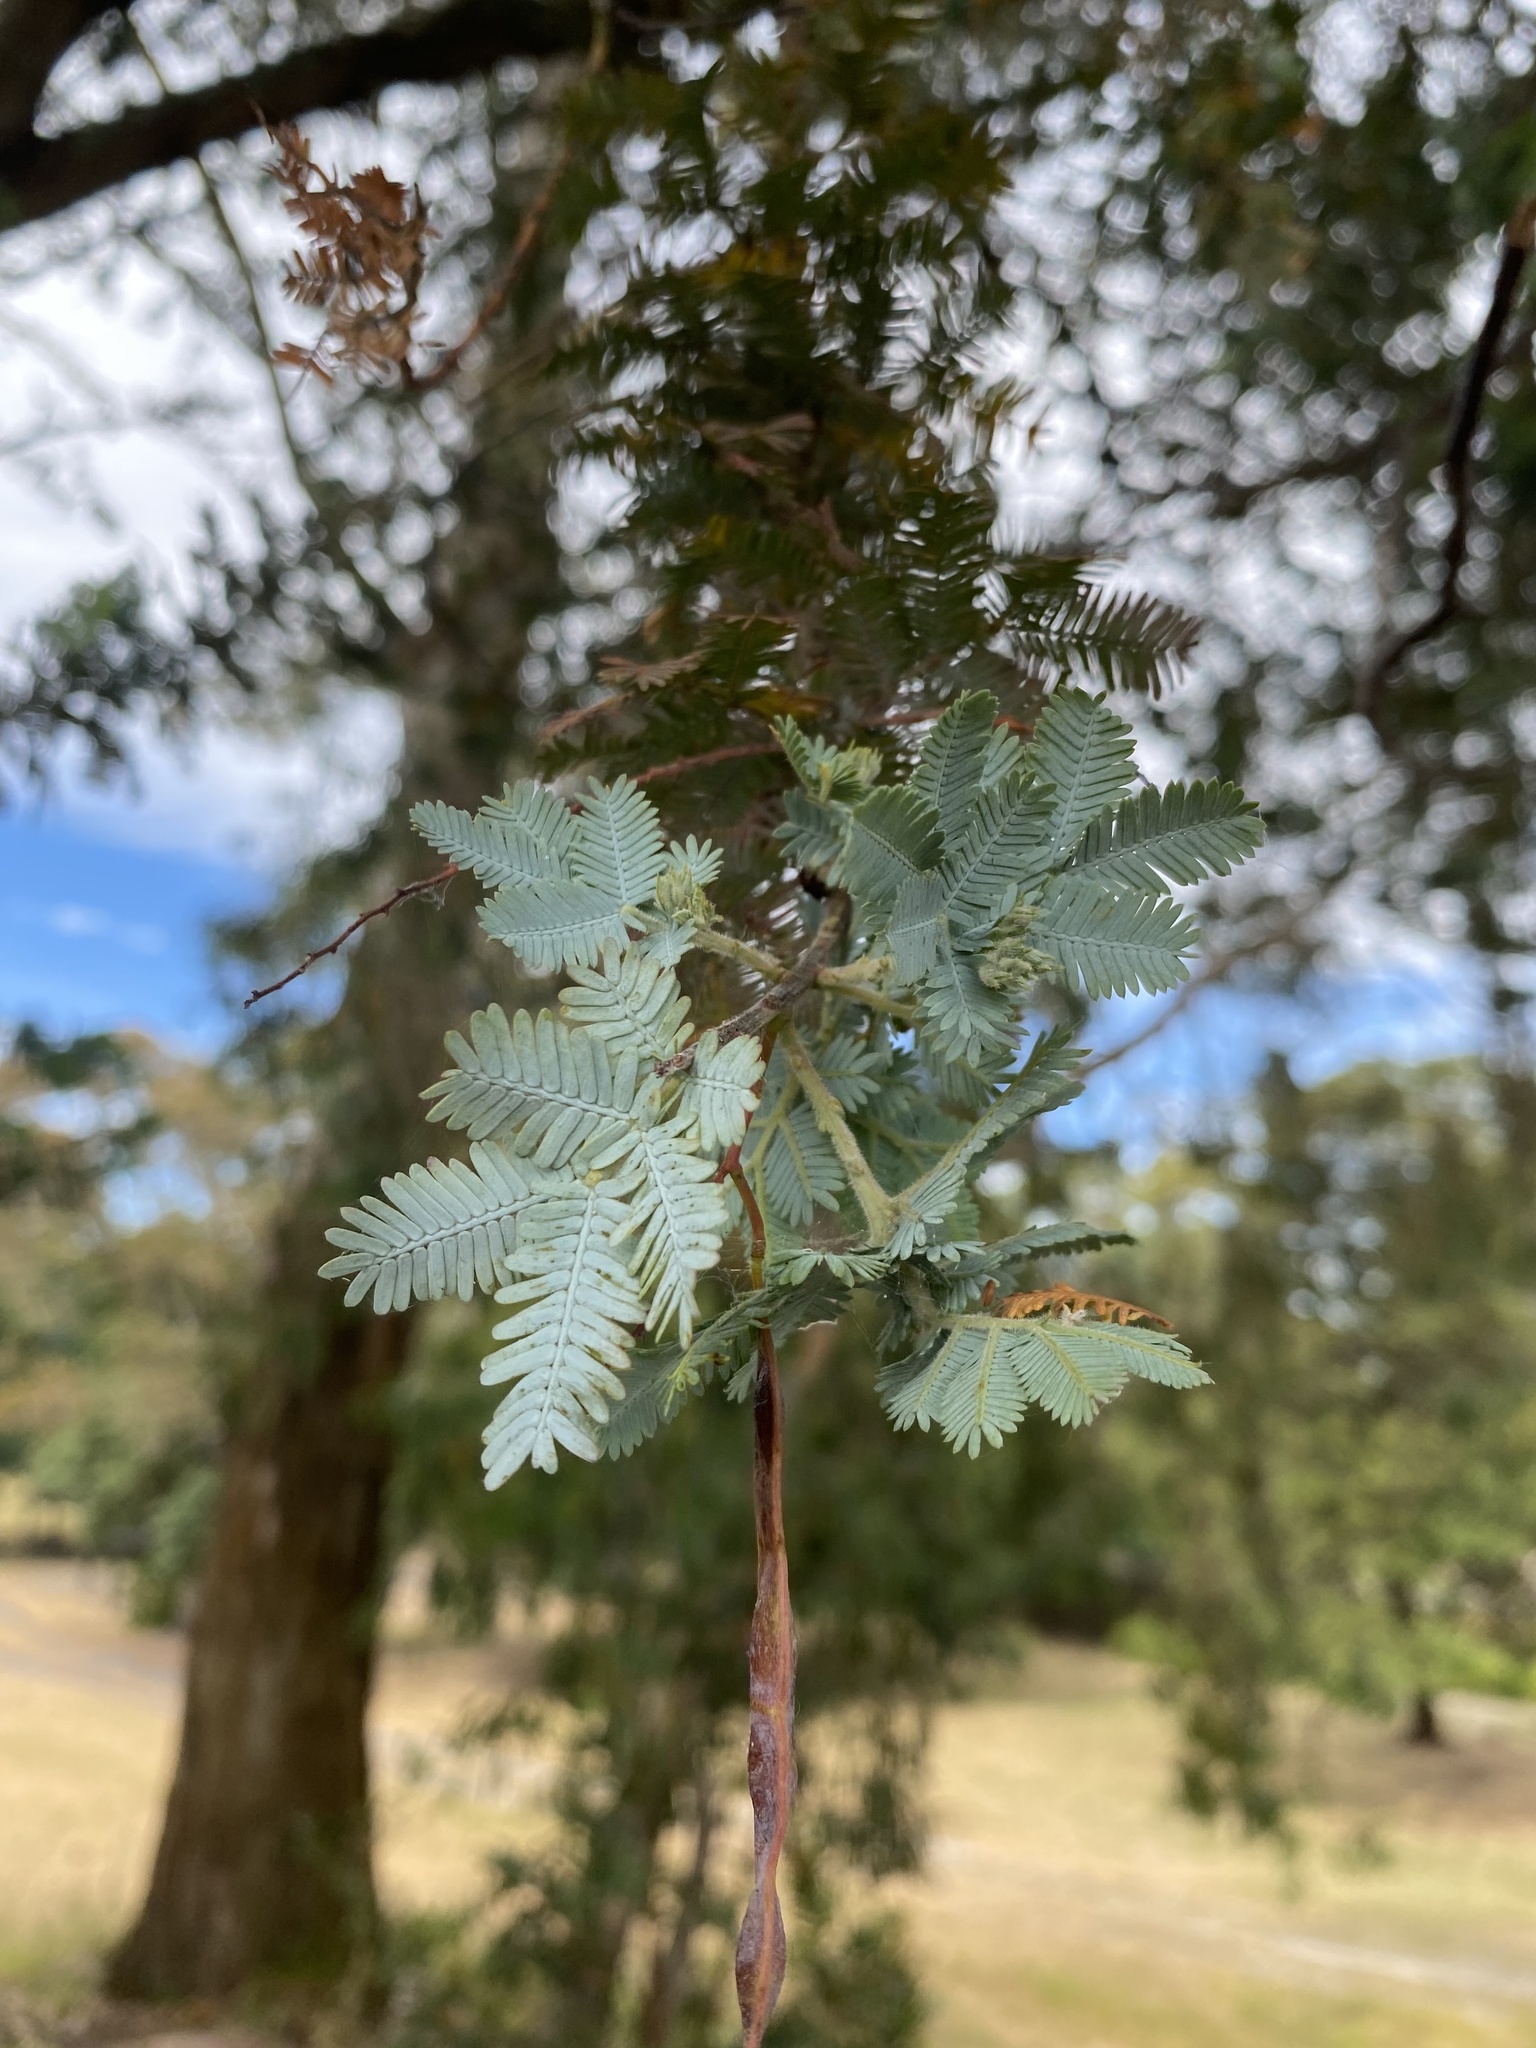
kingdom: Plantae
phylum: Tracheophyta
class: Magnoliopsida
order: Fabales
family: Fabaceae
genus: Acacia
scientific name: Acacia baileyana
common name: Cootamundra wattle
